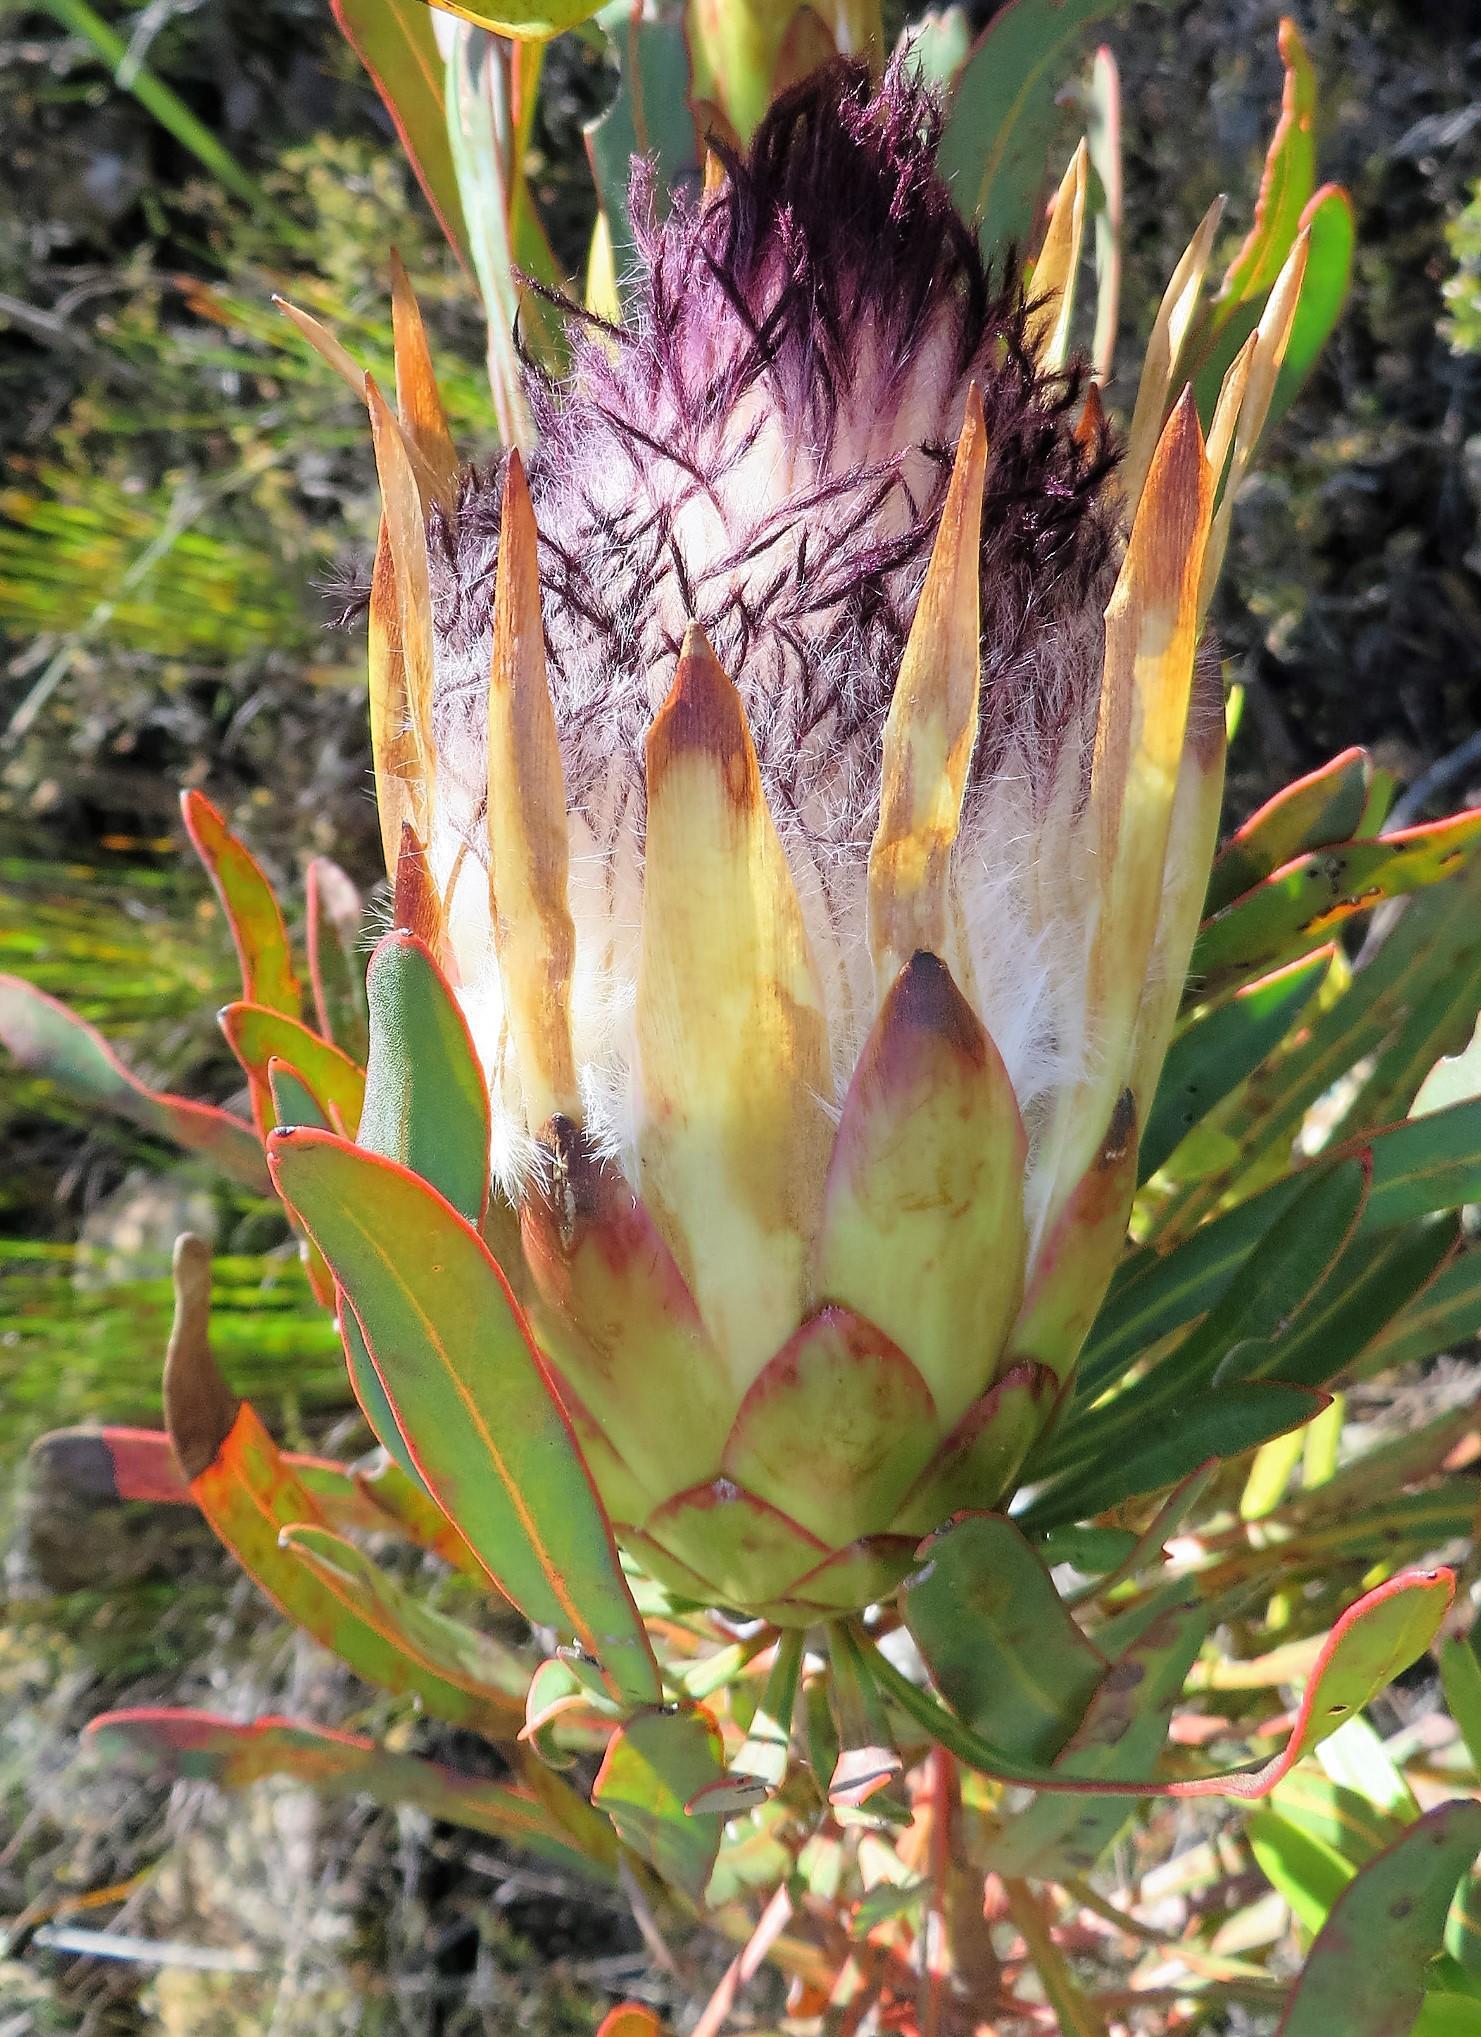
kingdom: Plantae
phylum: Tracheophyta
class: Magnoliopsida
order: Proteales
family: Proteaceae
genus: Protea
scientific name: Protea longifolia
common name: Long-leaf sugarbush
